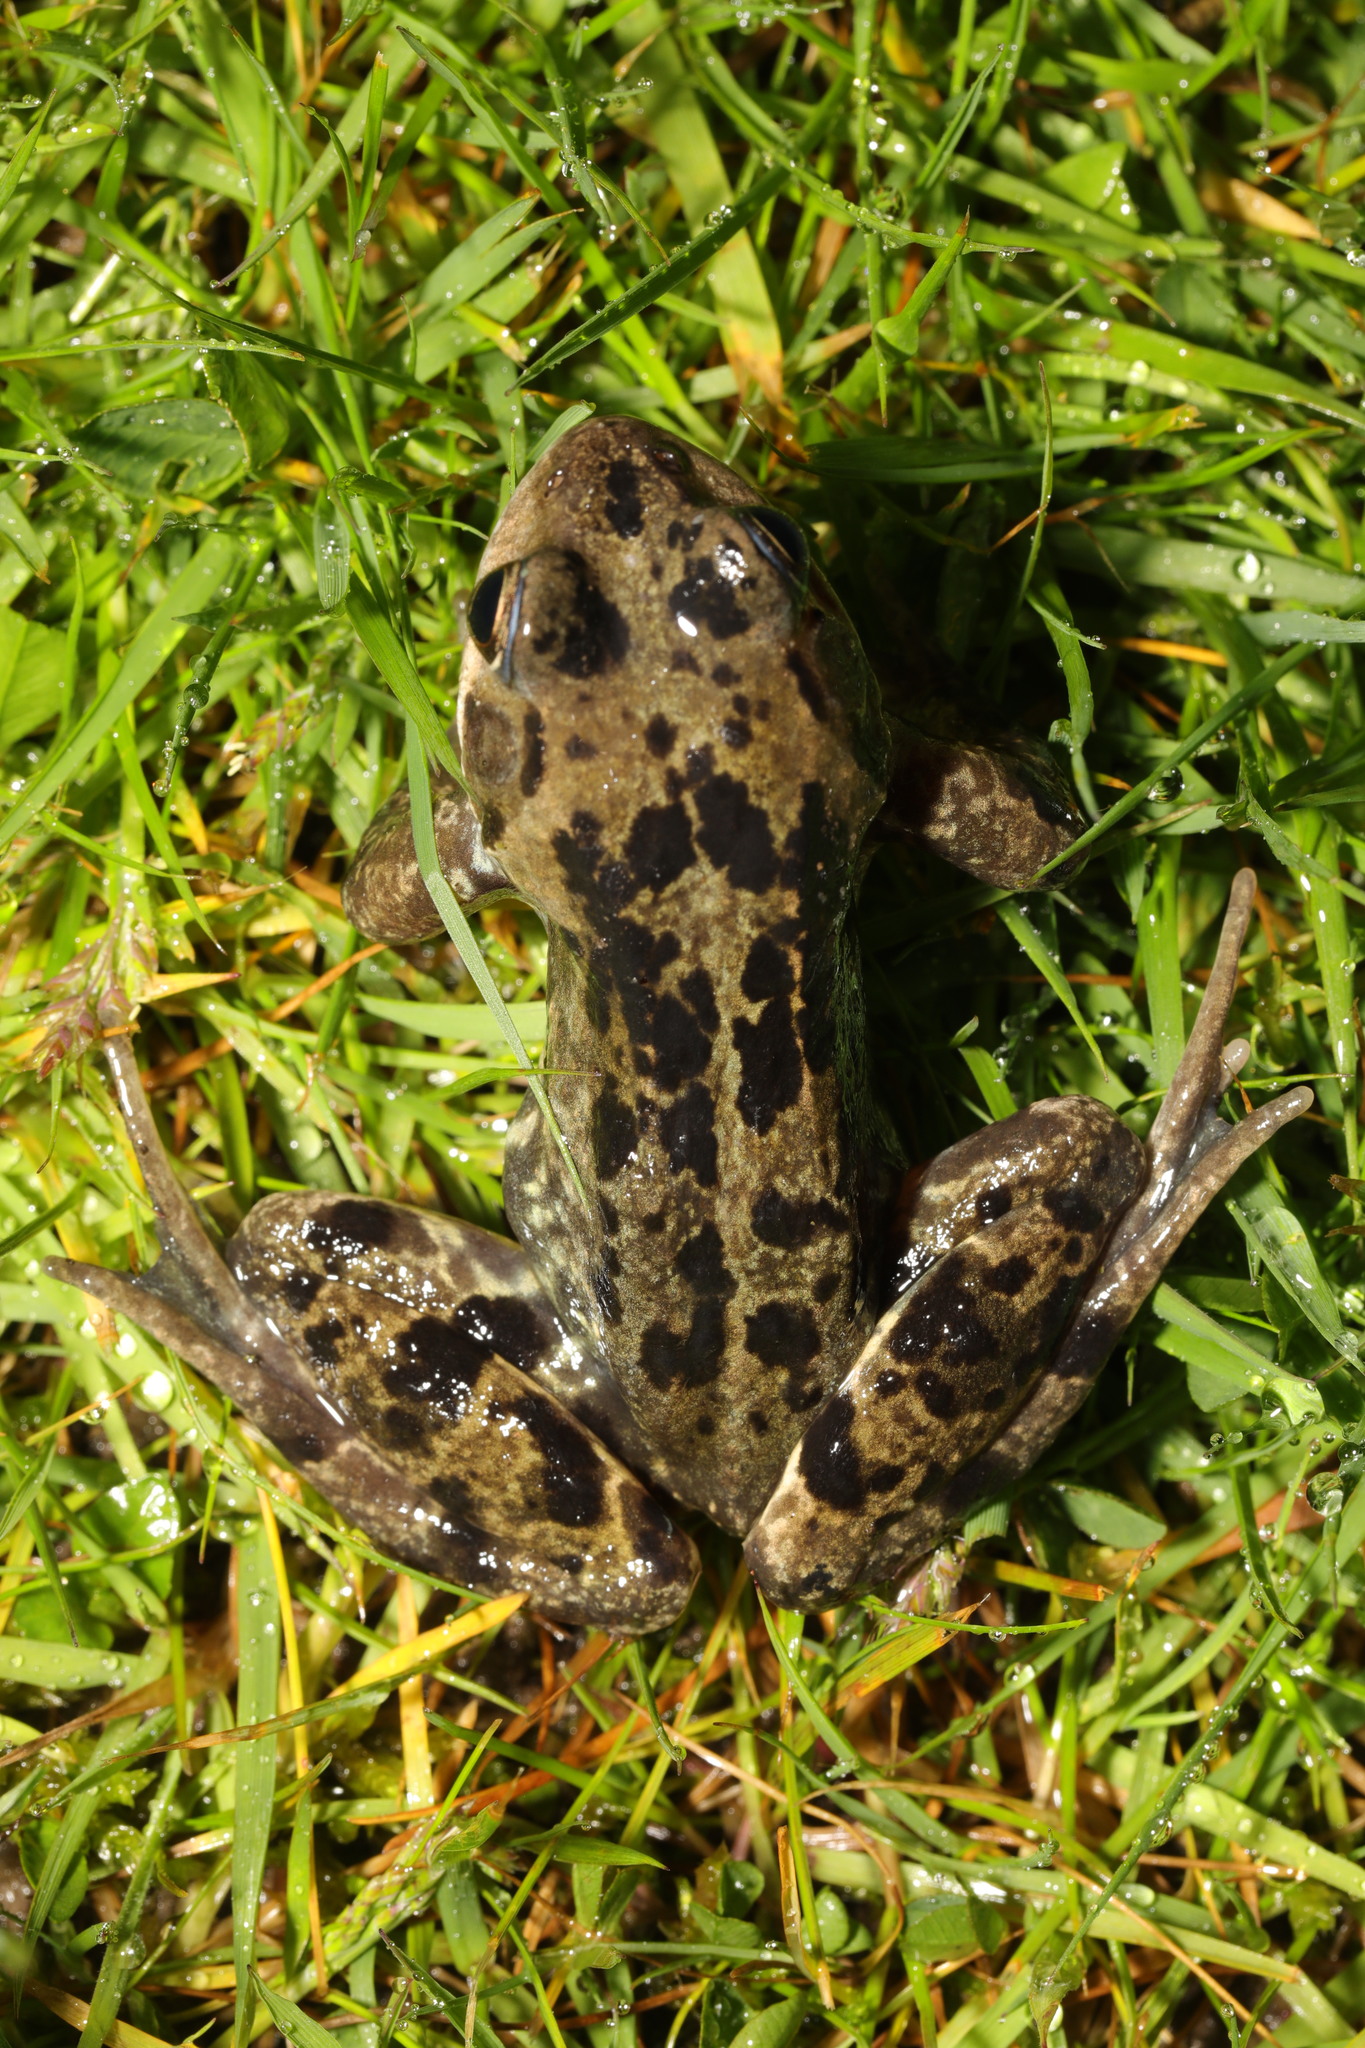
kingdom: Animalia
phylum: Chordata
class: Amphibia
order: Anura
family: Ranidae
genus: Rana
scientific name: Rana temporaria
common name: Common frog
